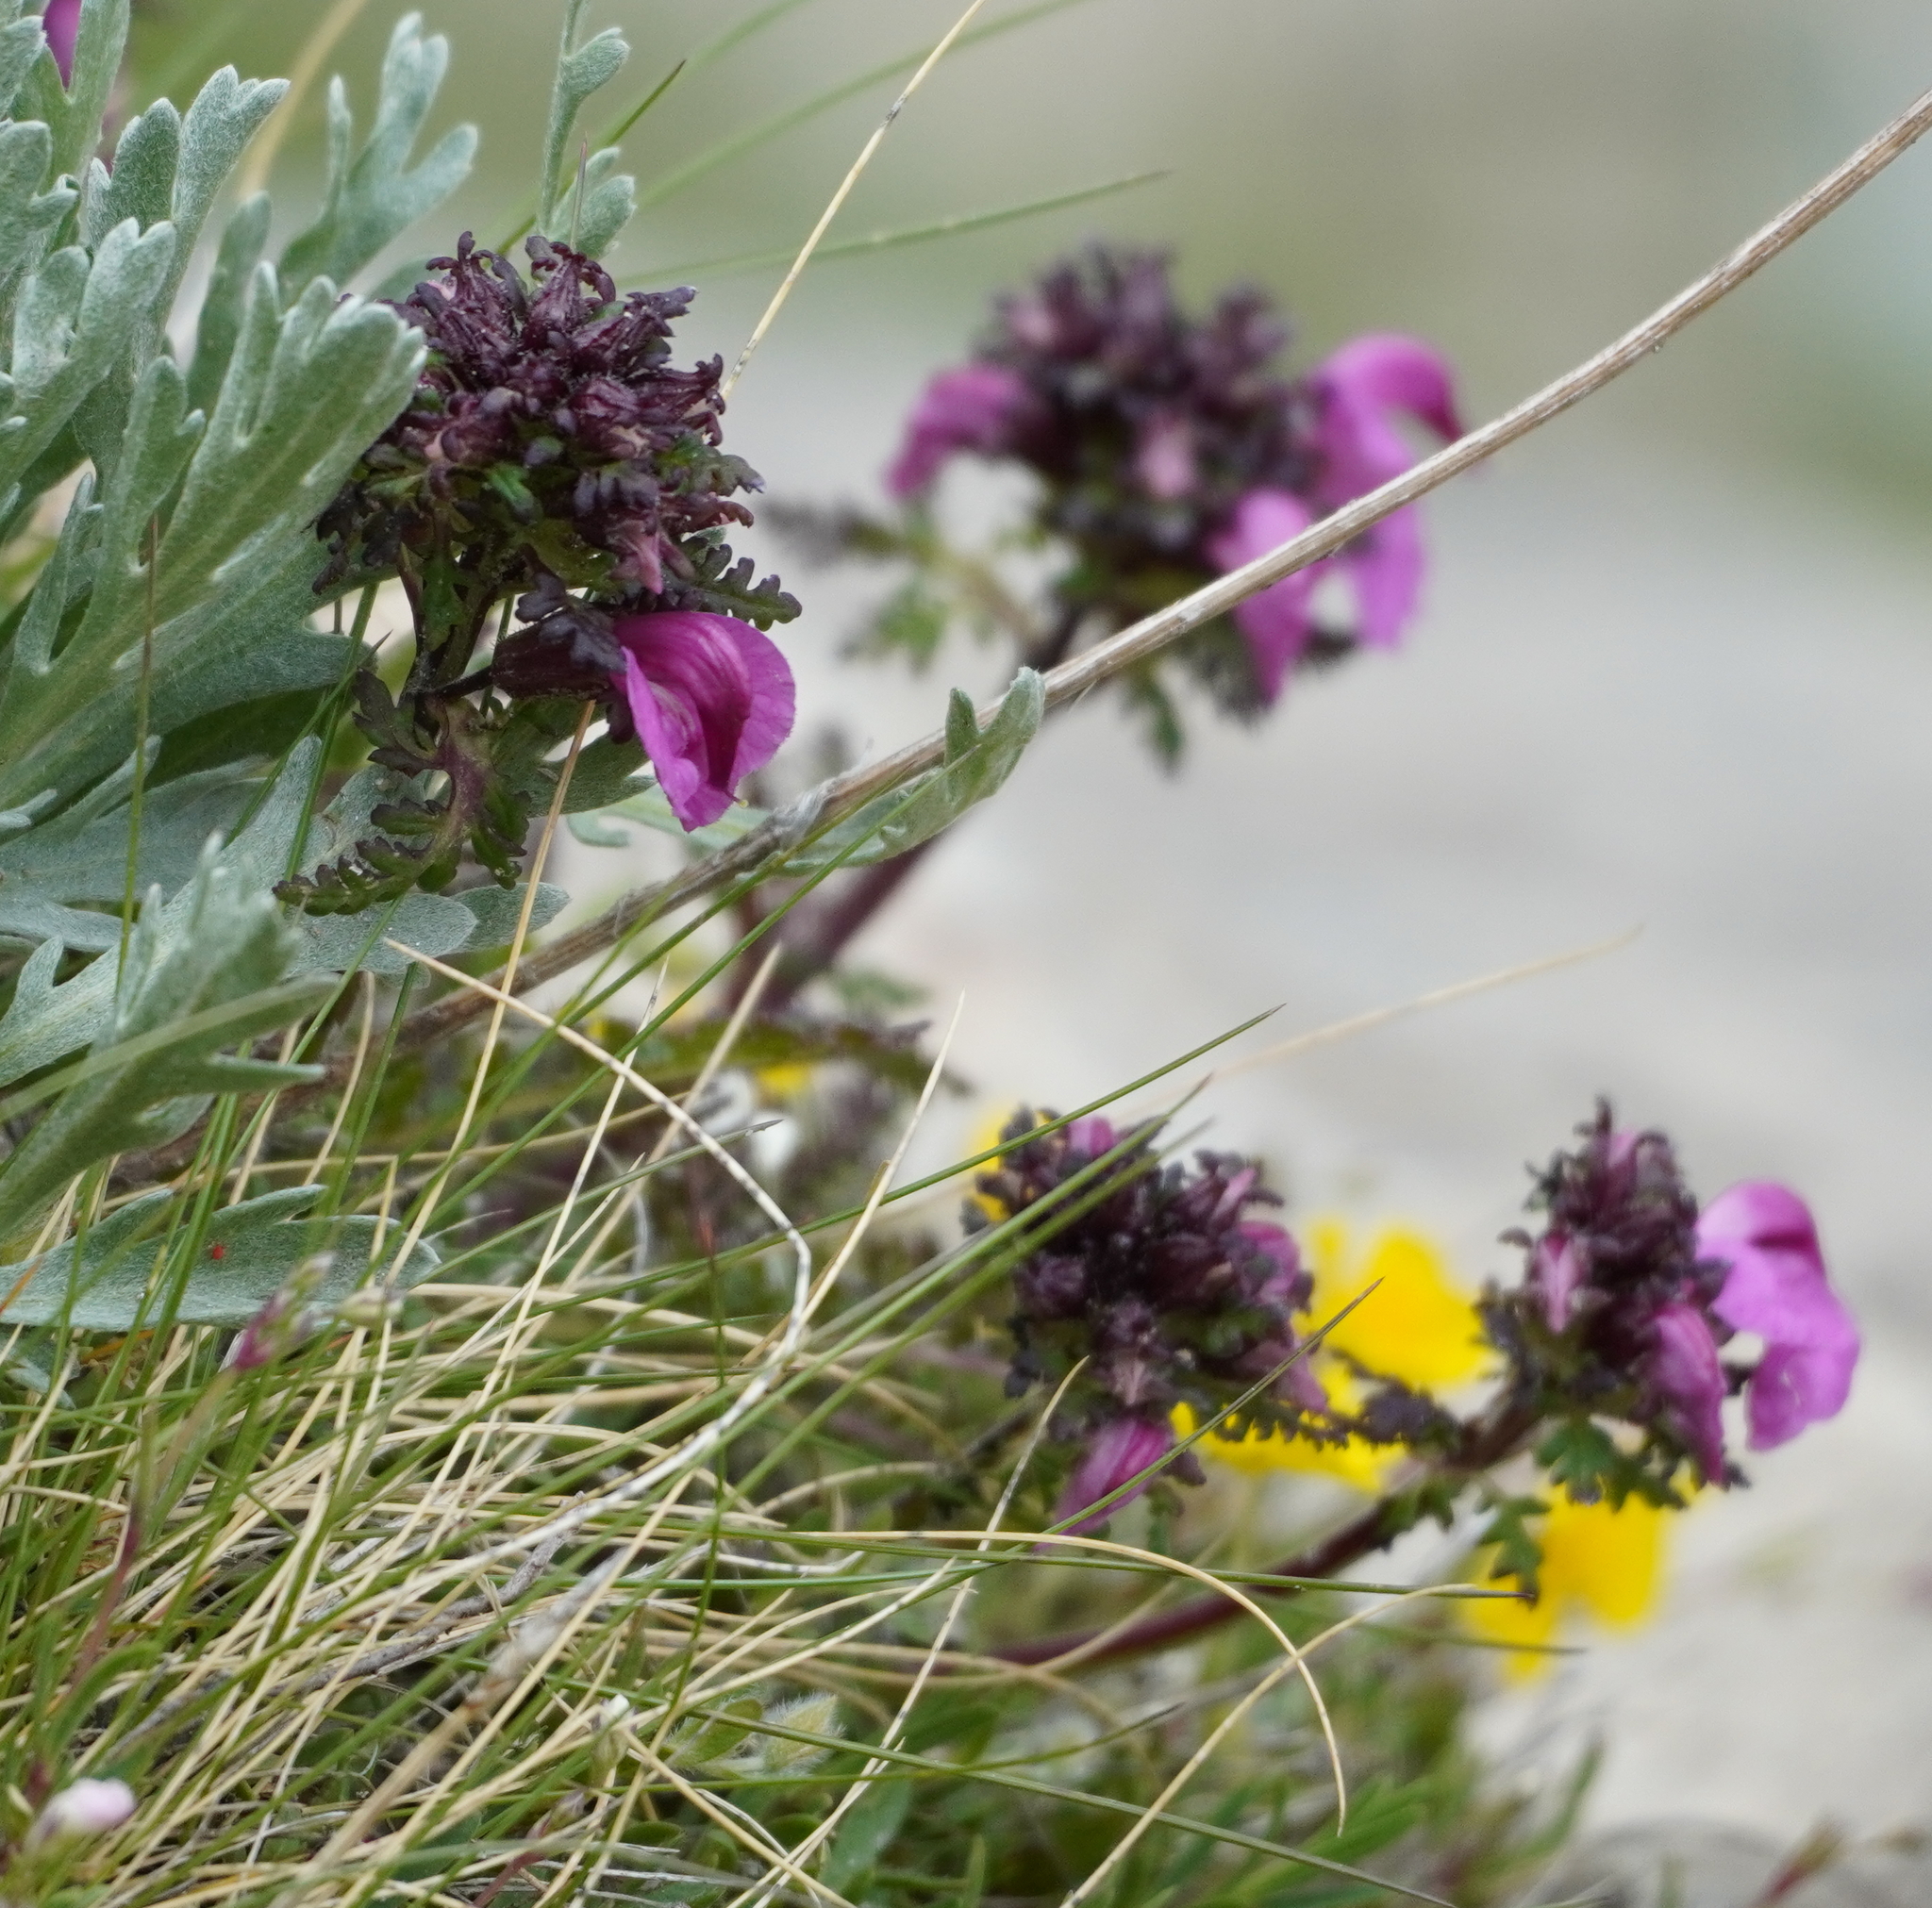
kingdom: Plantae
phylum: Tracheophyta
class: Magnoliopsida
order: Lamiales
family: Orobanchaceae
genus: Pedicularis
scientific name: Pedicularis rostratocapitata
